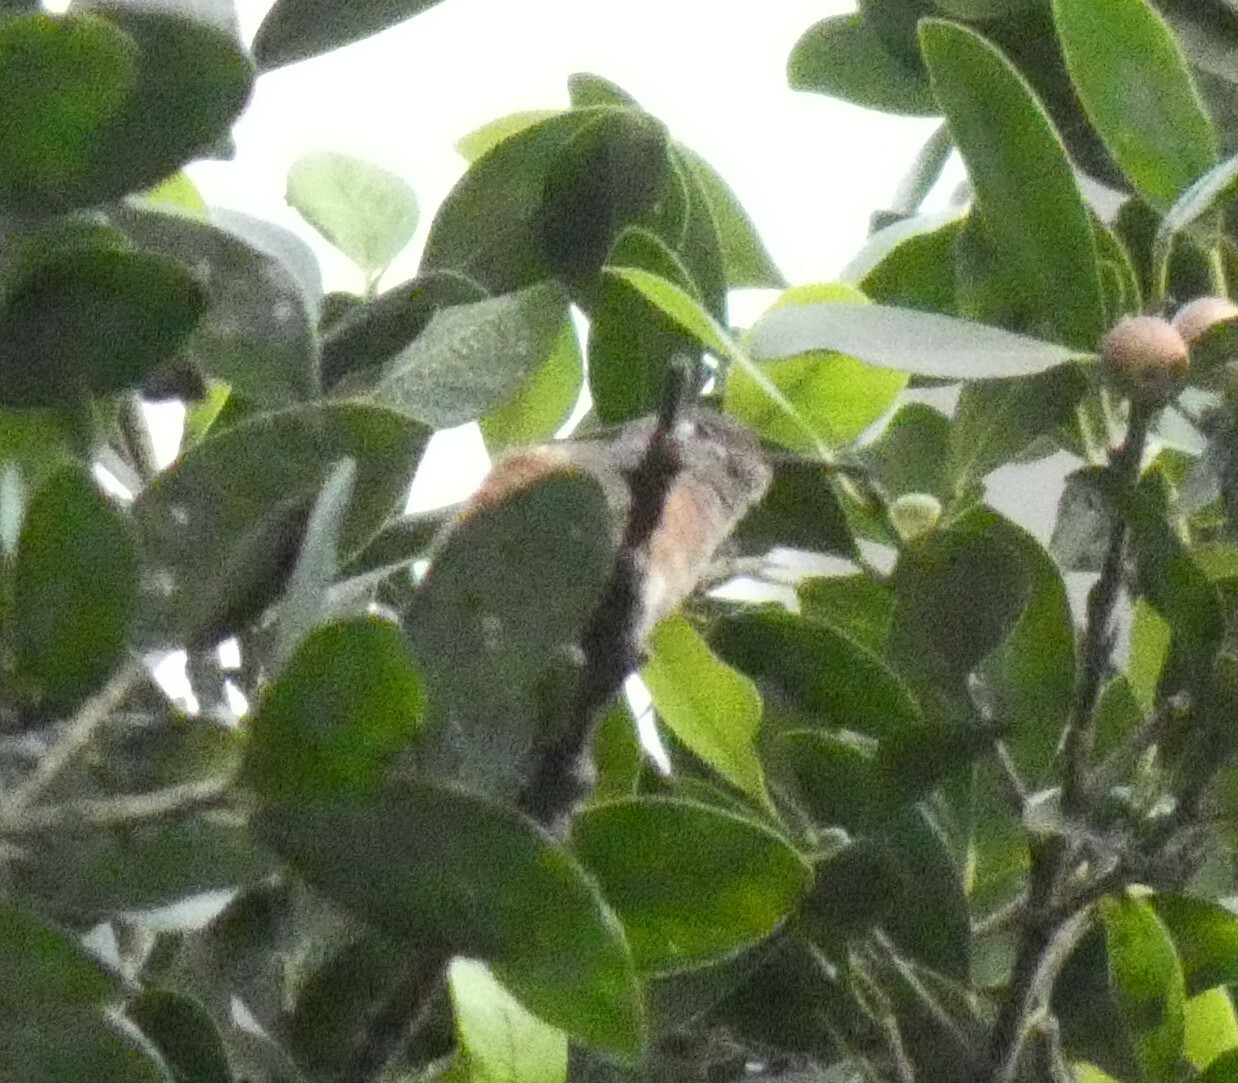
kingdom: Animalia
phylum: Chordata
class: Aves
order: Apodiformes
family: Trochilidae
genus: Amazilis
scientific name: Amazilis amazilia
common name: Amazilia hummingbird
